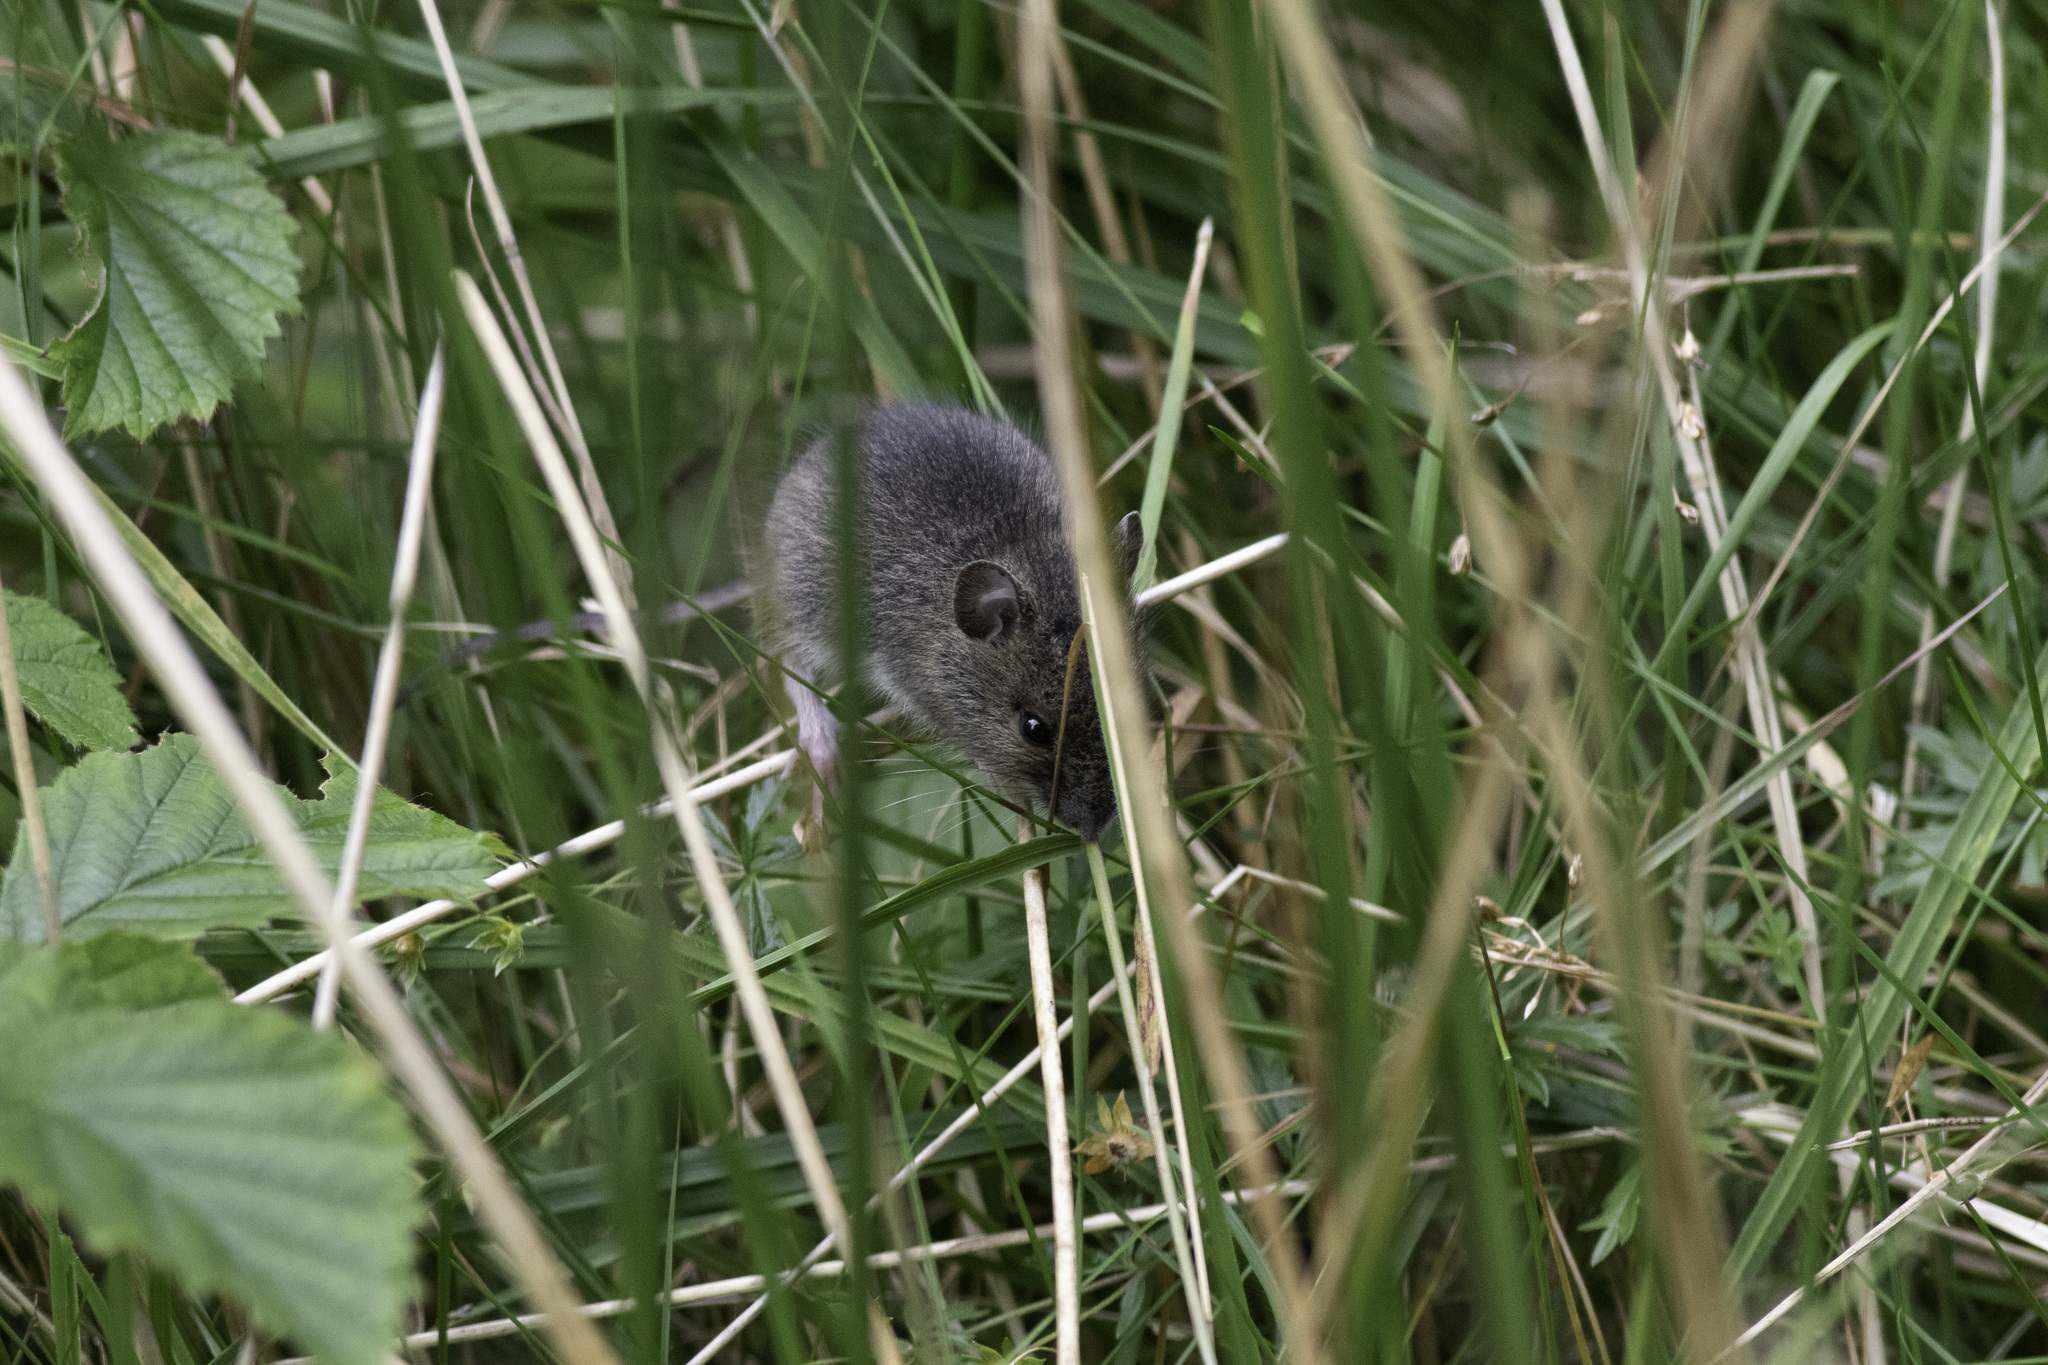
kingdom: Animalia
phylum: Chordata
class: Mammalia
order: Rodentia
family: Muridae
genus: Apodemus
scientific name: Apodemus sylvaticus
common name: Wood mouse
